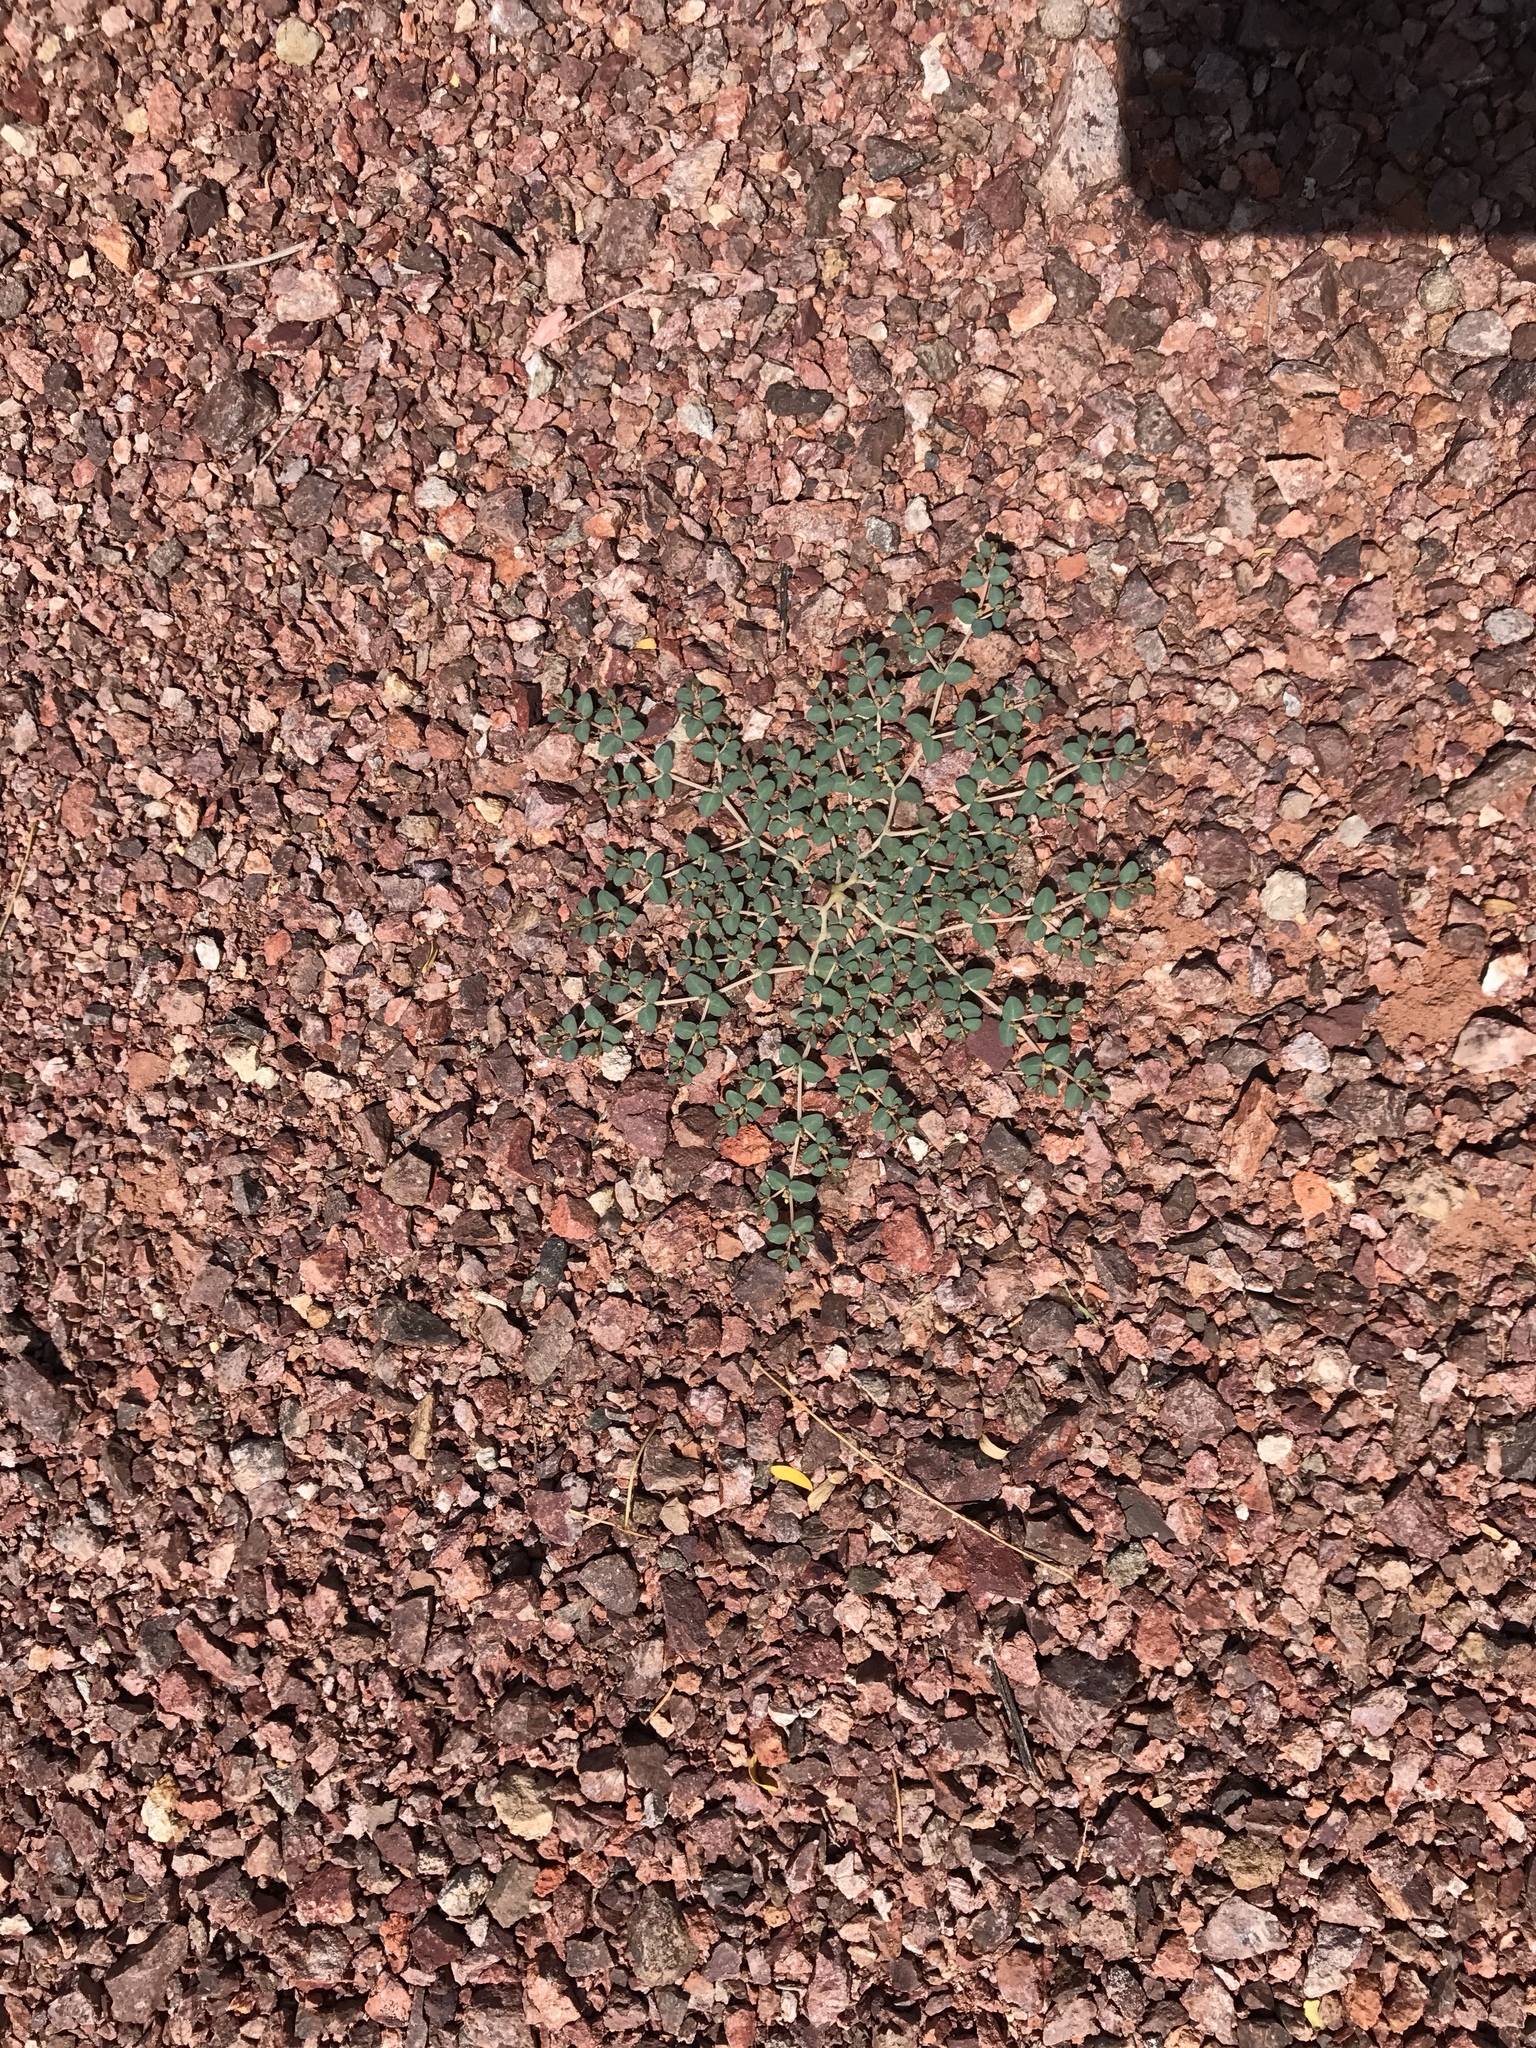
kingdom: Plantae
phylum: Tracheophyta
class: Magnoliopsida
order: Malpighiales
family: Euphorbiaceae
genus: Euphorbia
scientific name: Euphorbia micromera
